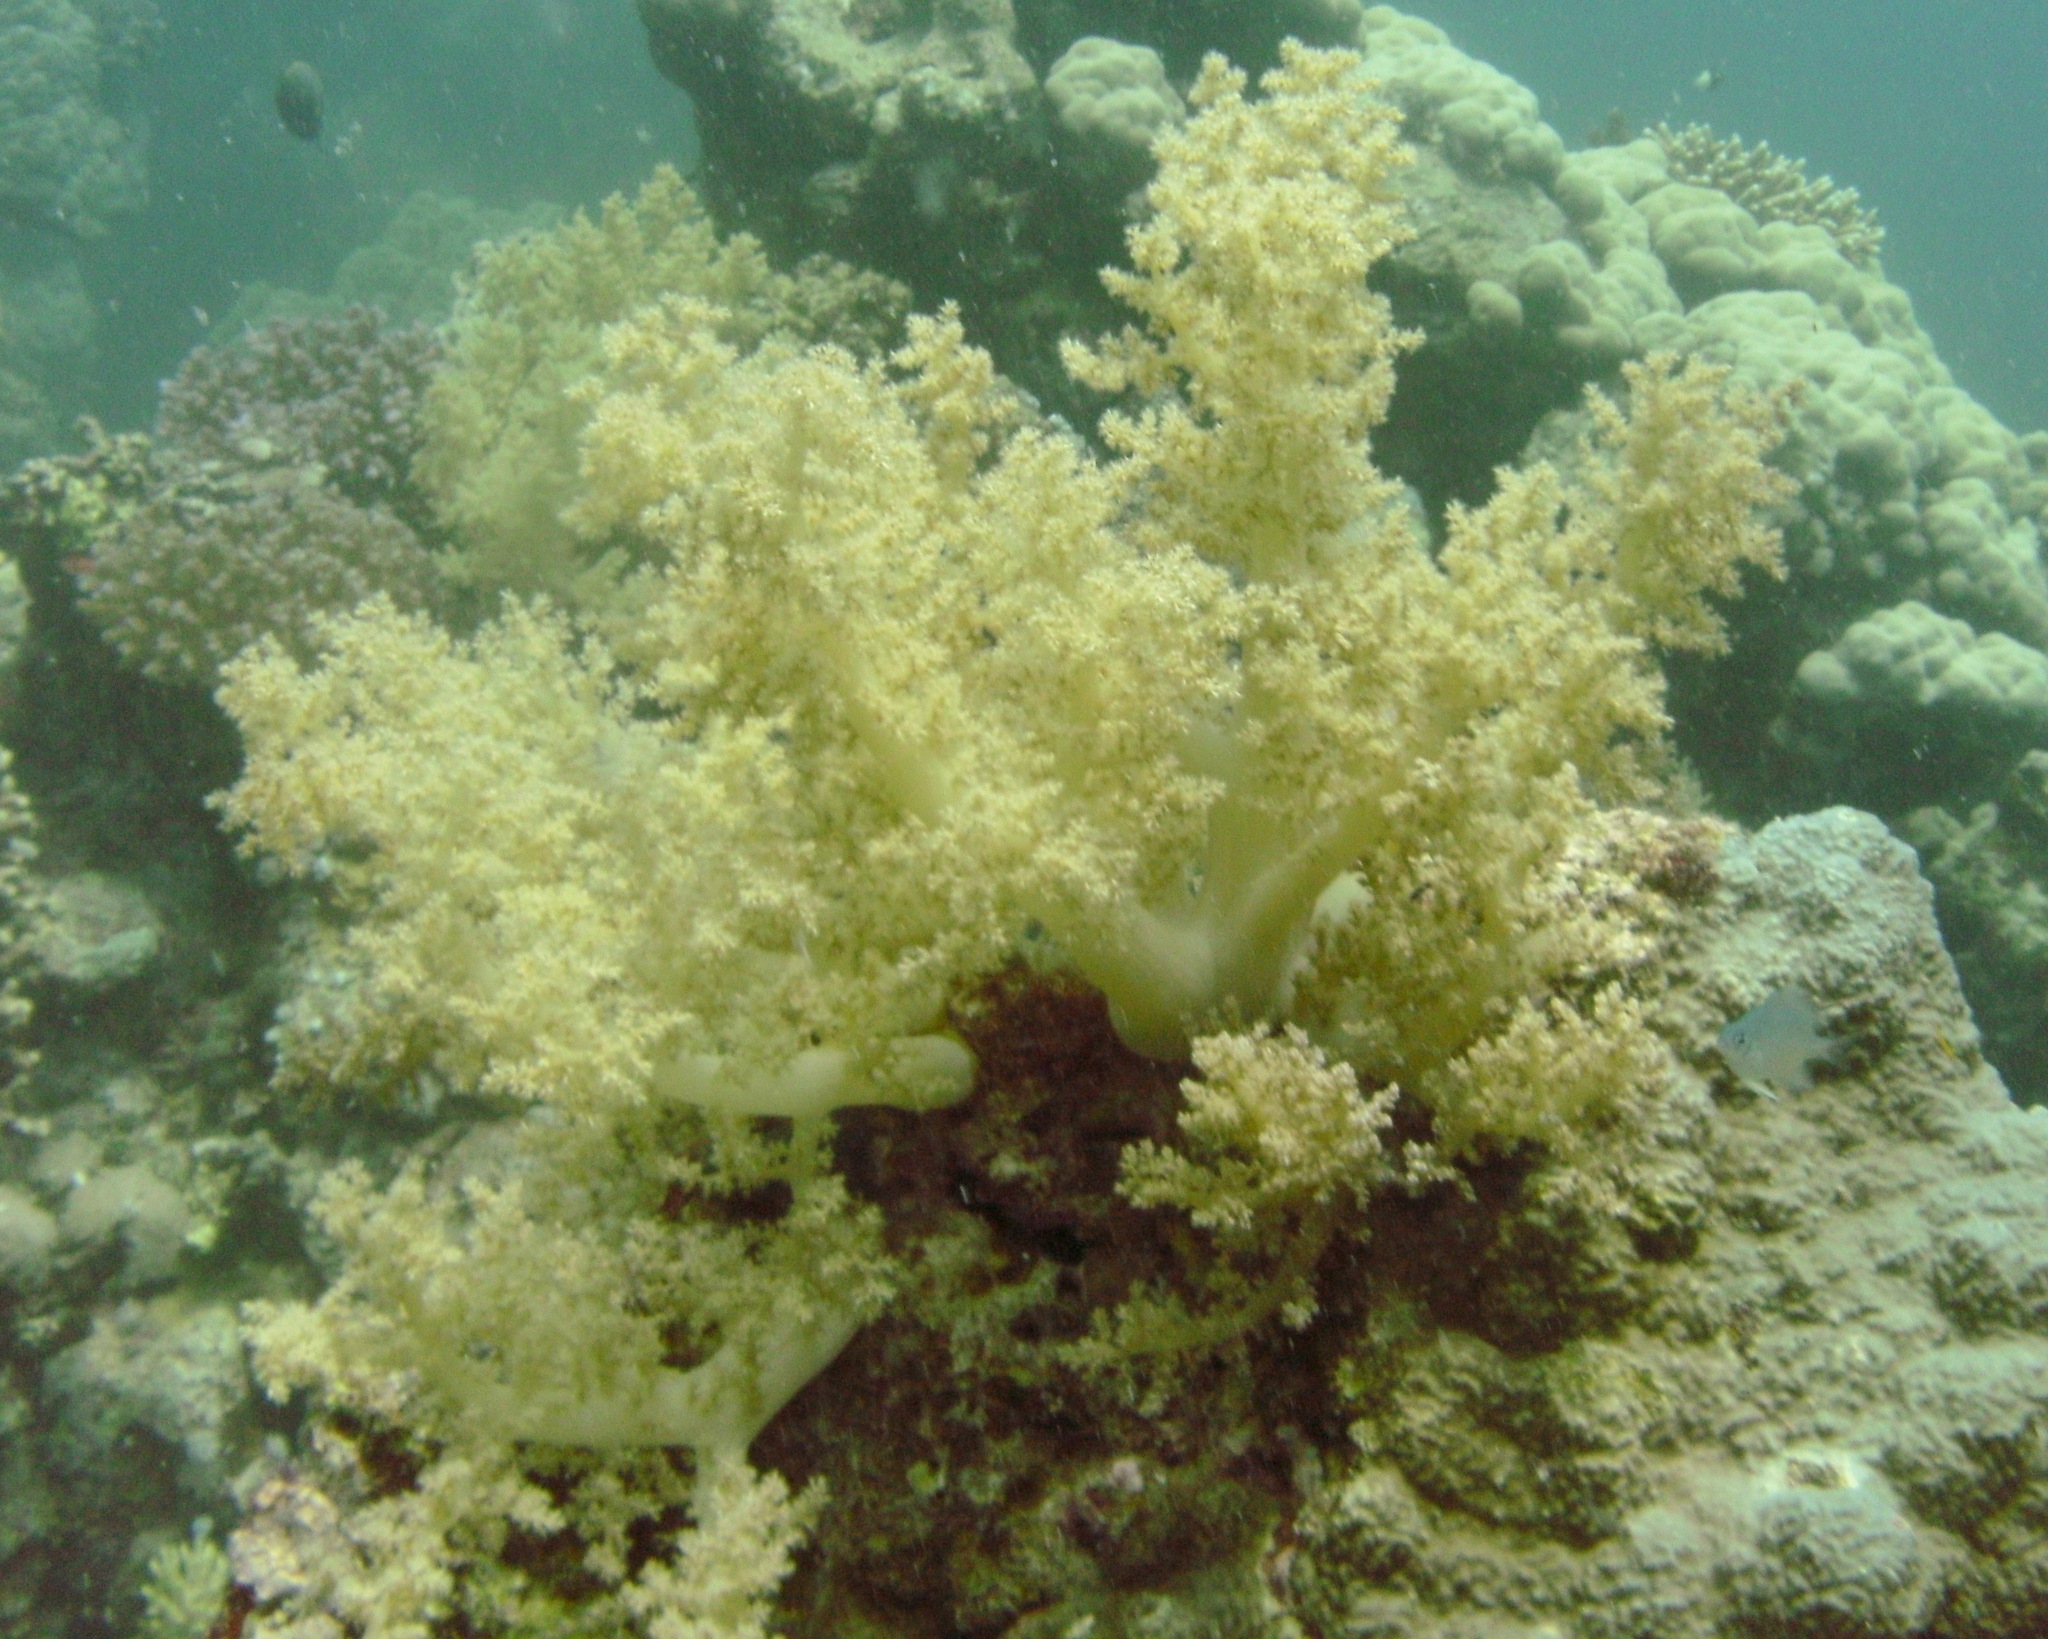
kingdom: Animalia
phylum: Cnidaria
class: Anthozoa
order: Malacalcyonacea
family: Nephtheidae
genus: Litophyton
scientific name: Litophyton arboreum
